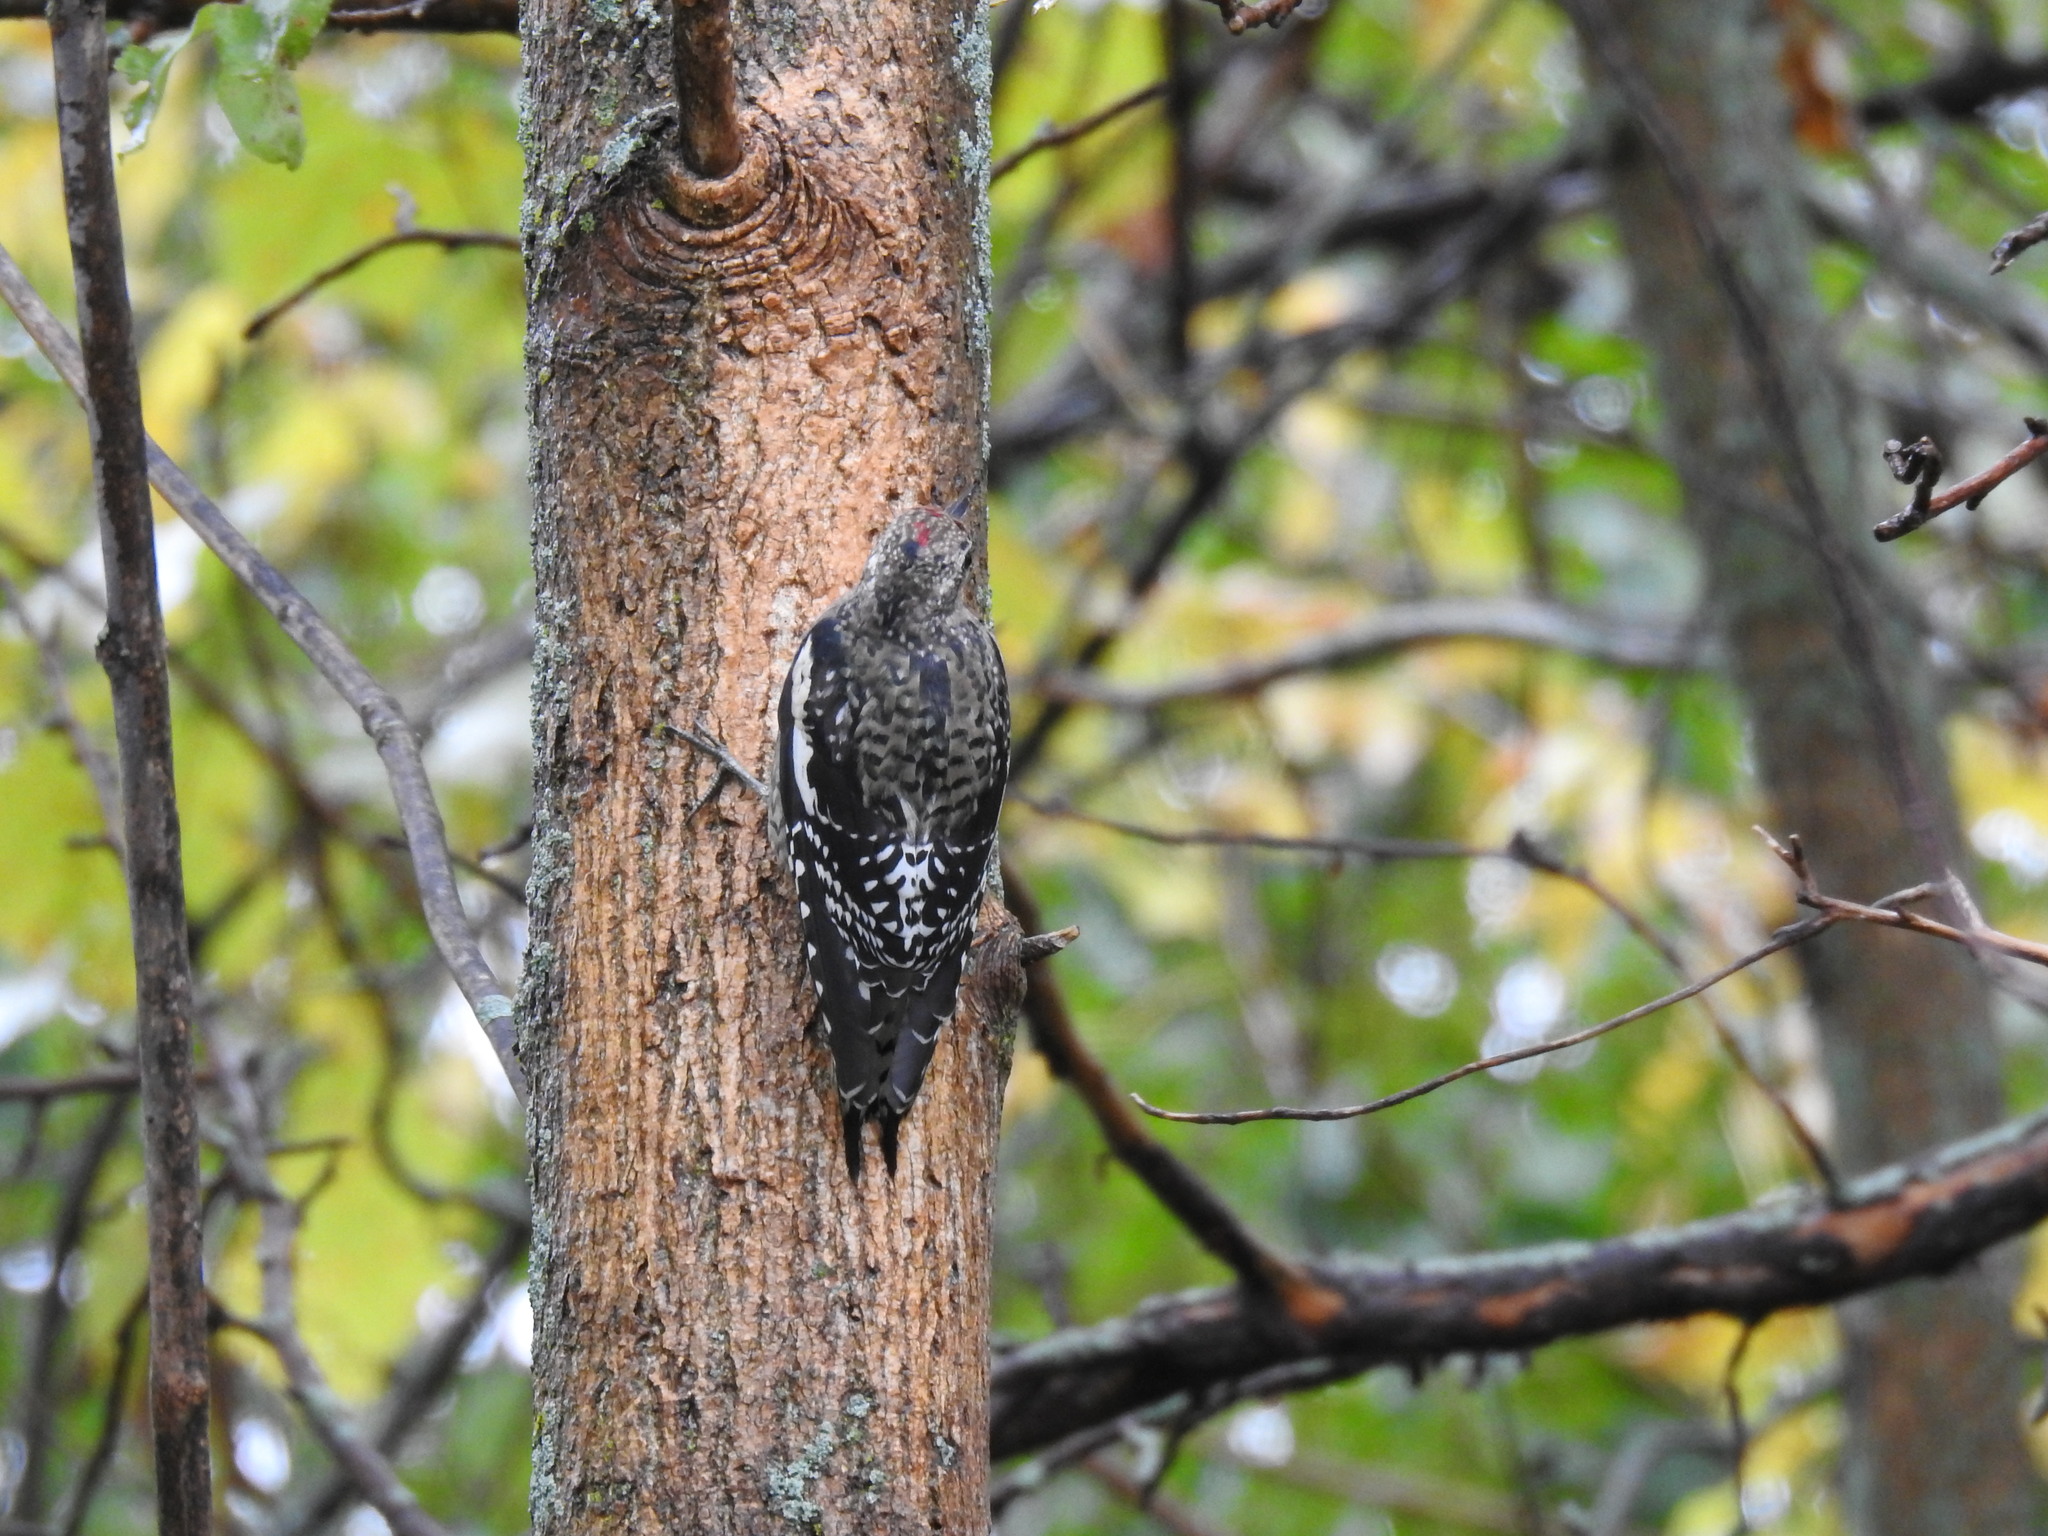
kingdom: Animalia
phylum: Chordata
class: Aves
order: Piciformes
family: Picidae
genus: Sphyrapicus
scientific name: Sphyrapicus varius
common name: Yellow-bellied sapsucker
